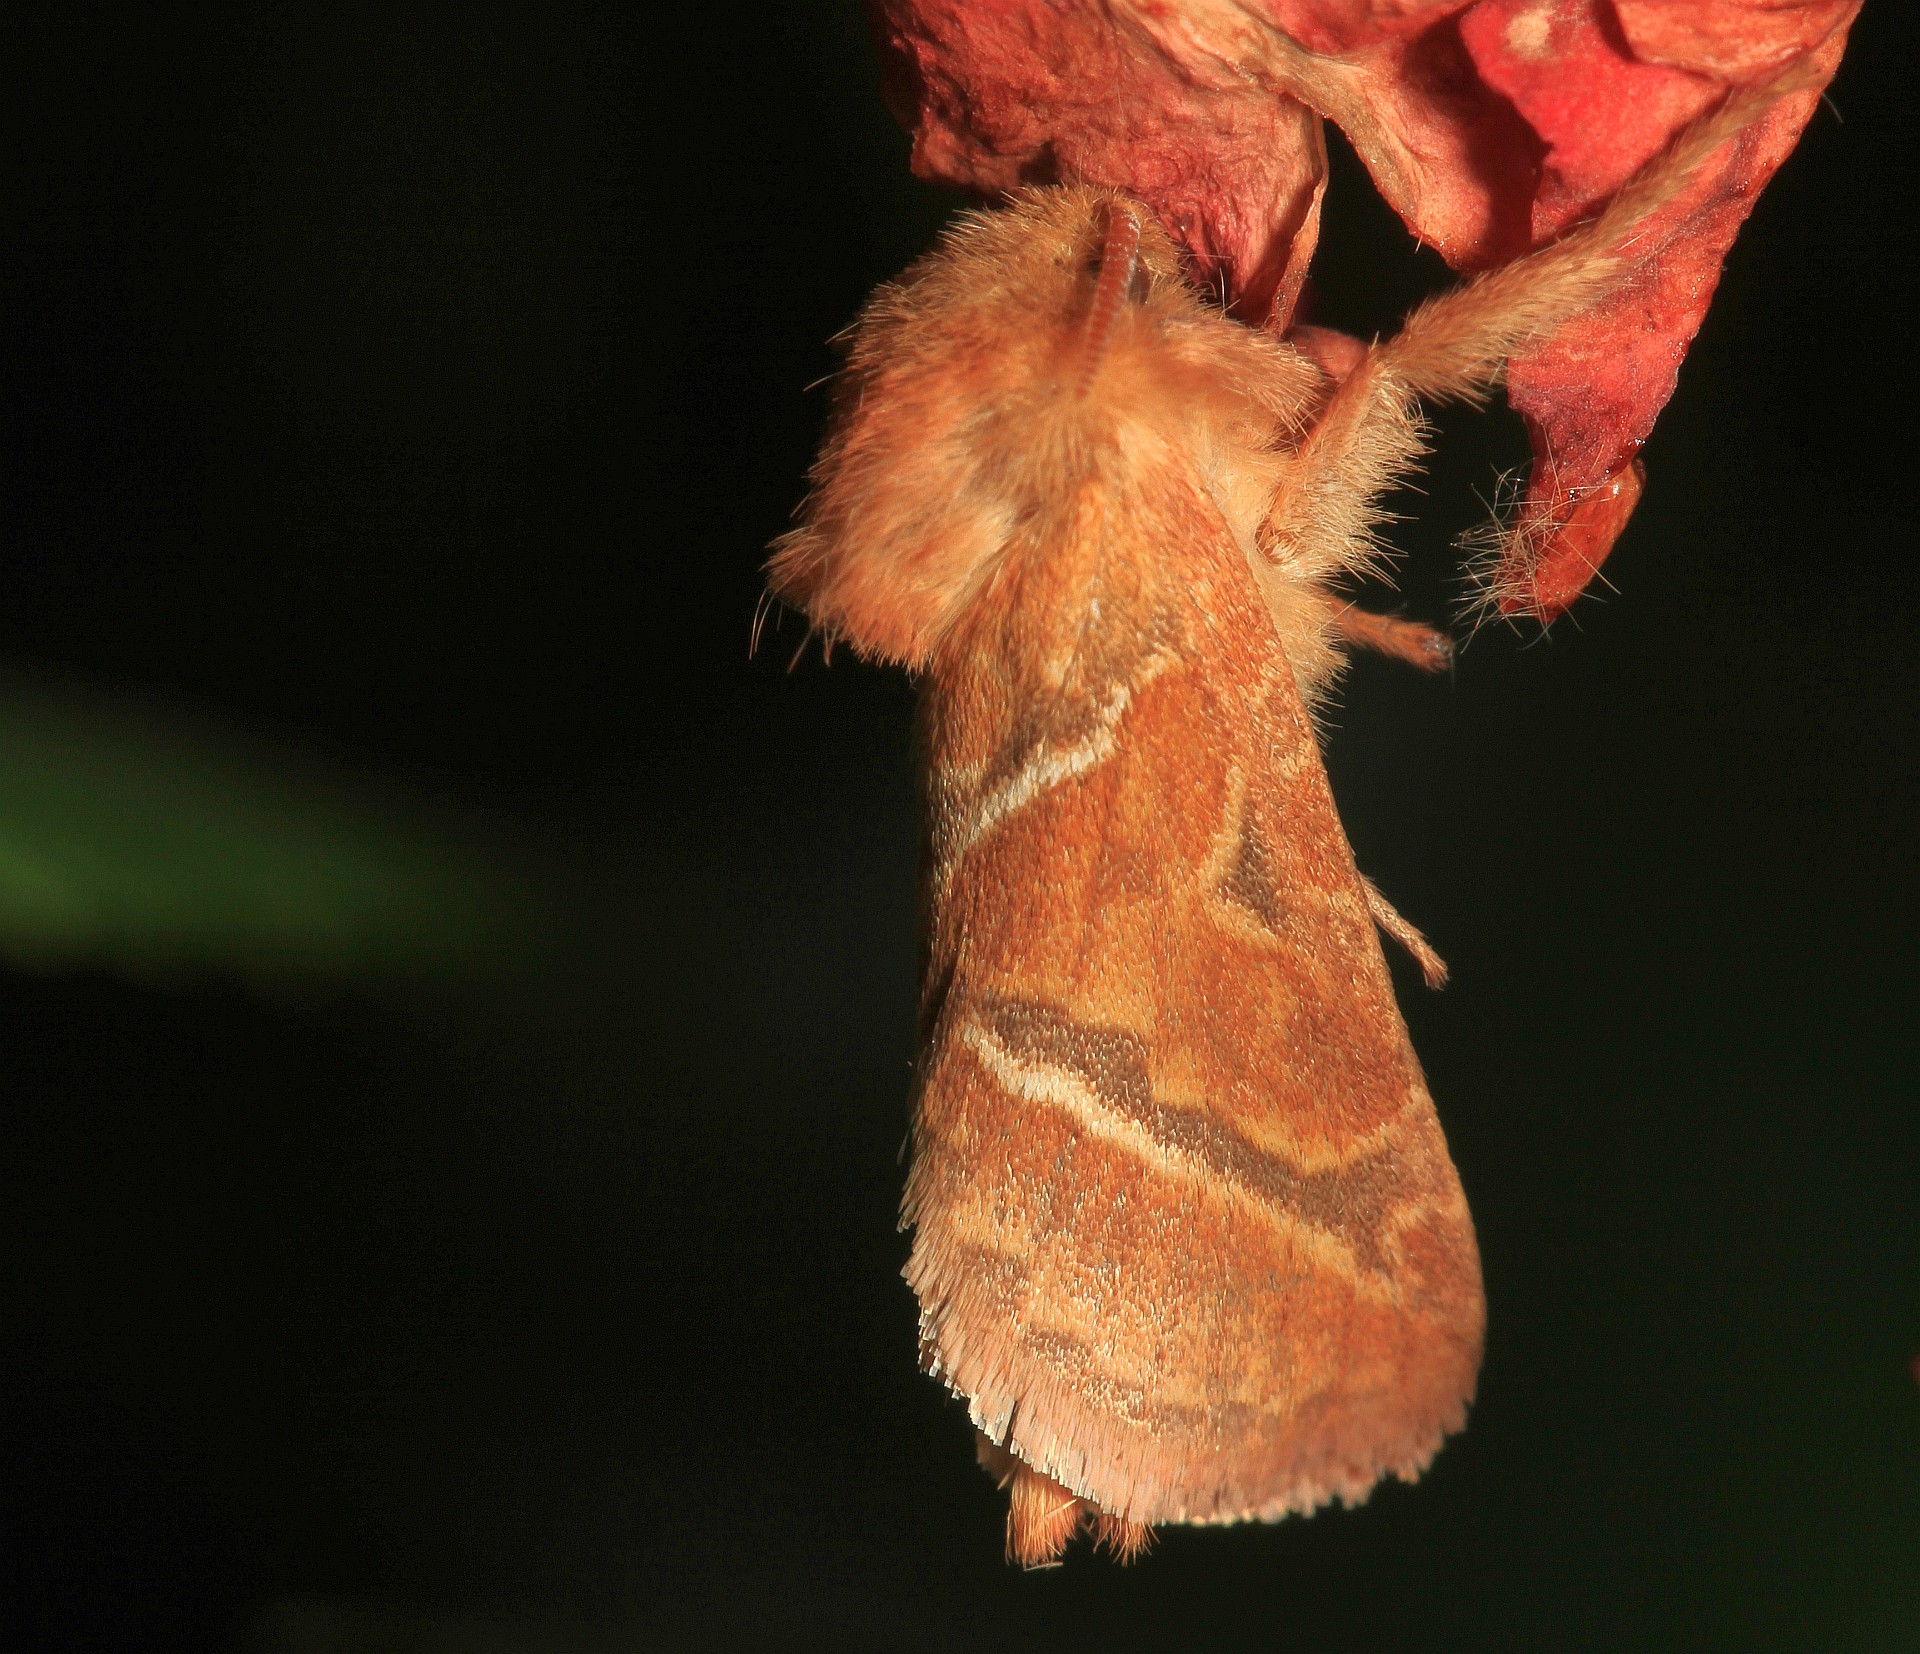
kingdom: Animalia
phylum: Arthropoda
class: Insecta
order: Lepidoptera
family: Hepialidae
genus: Triodia
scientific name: Triodia sylvina
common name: Orange swift
